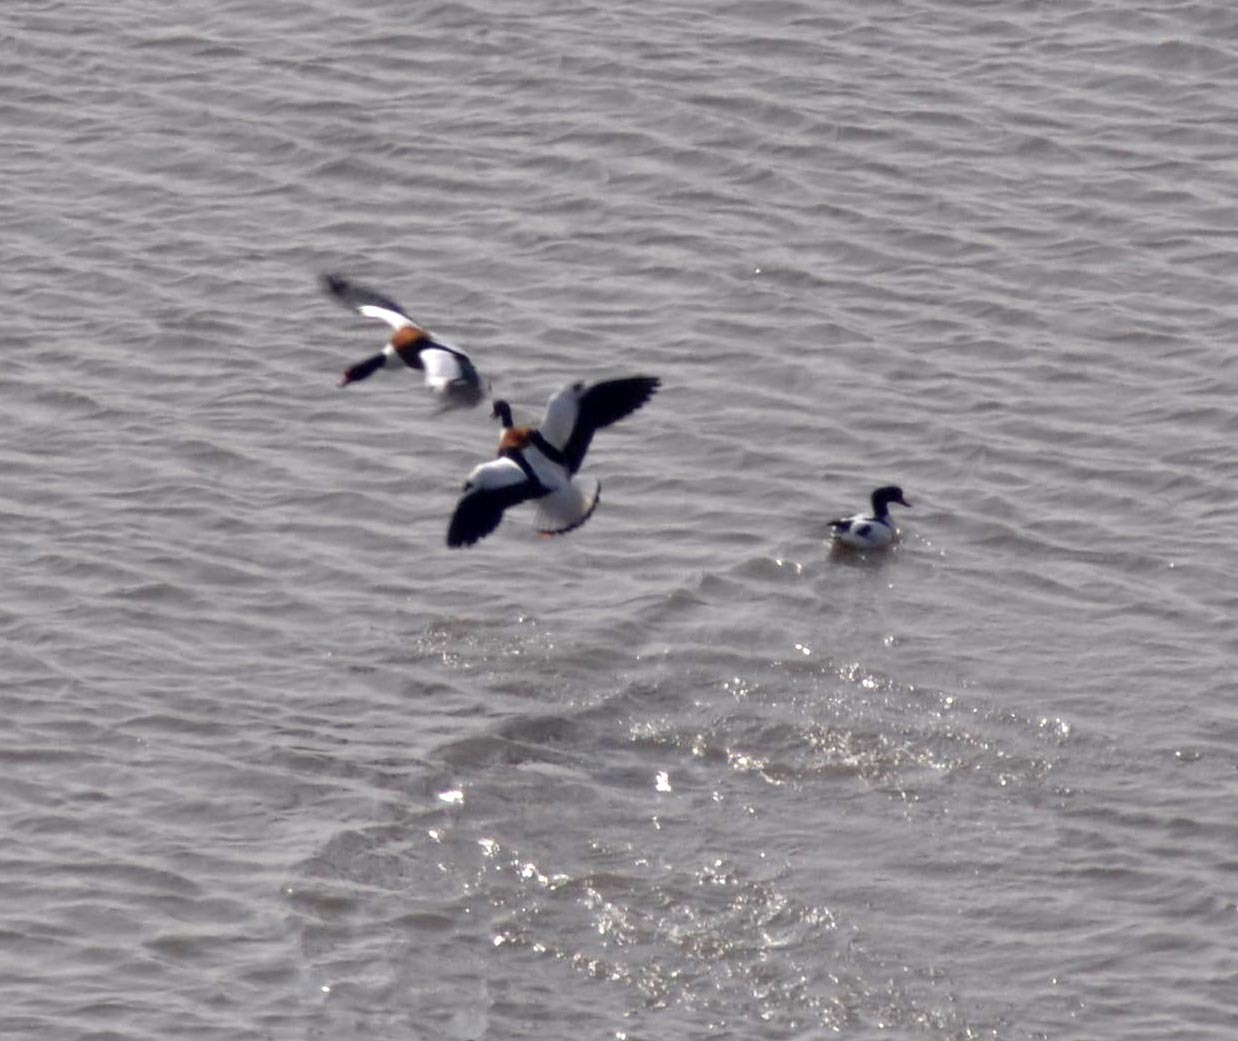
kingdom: Animalia
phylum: Chordata
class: Aves
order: Anseriformes
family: Anatidae
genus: Tadorna
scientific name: Tadorna tadorna
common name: Common shelduck
